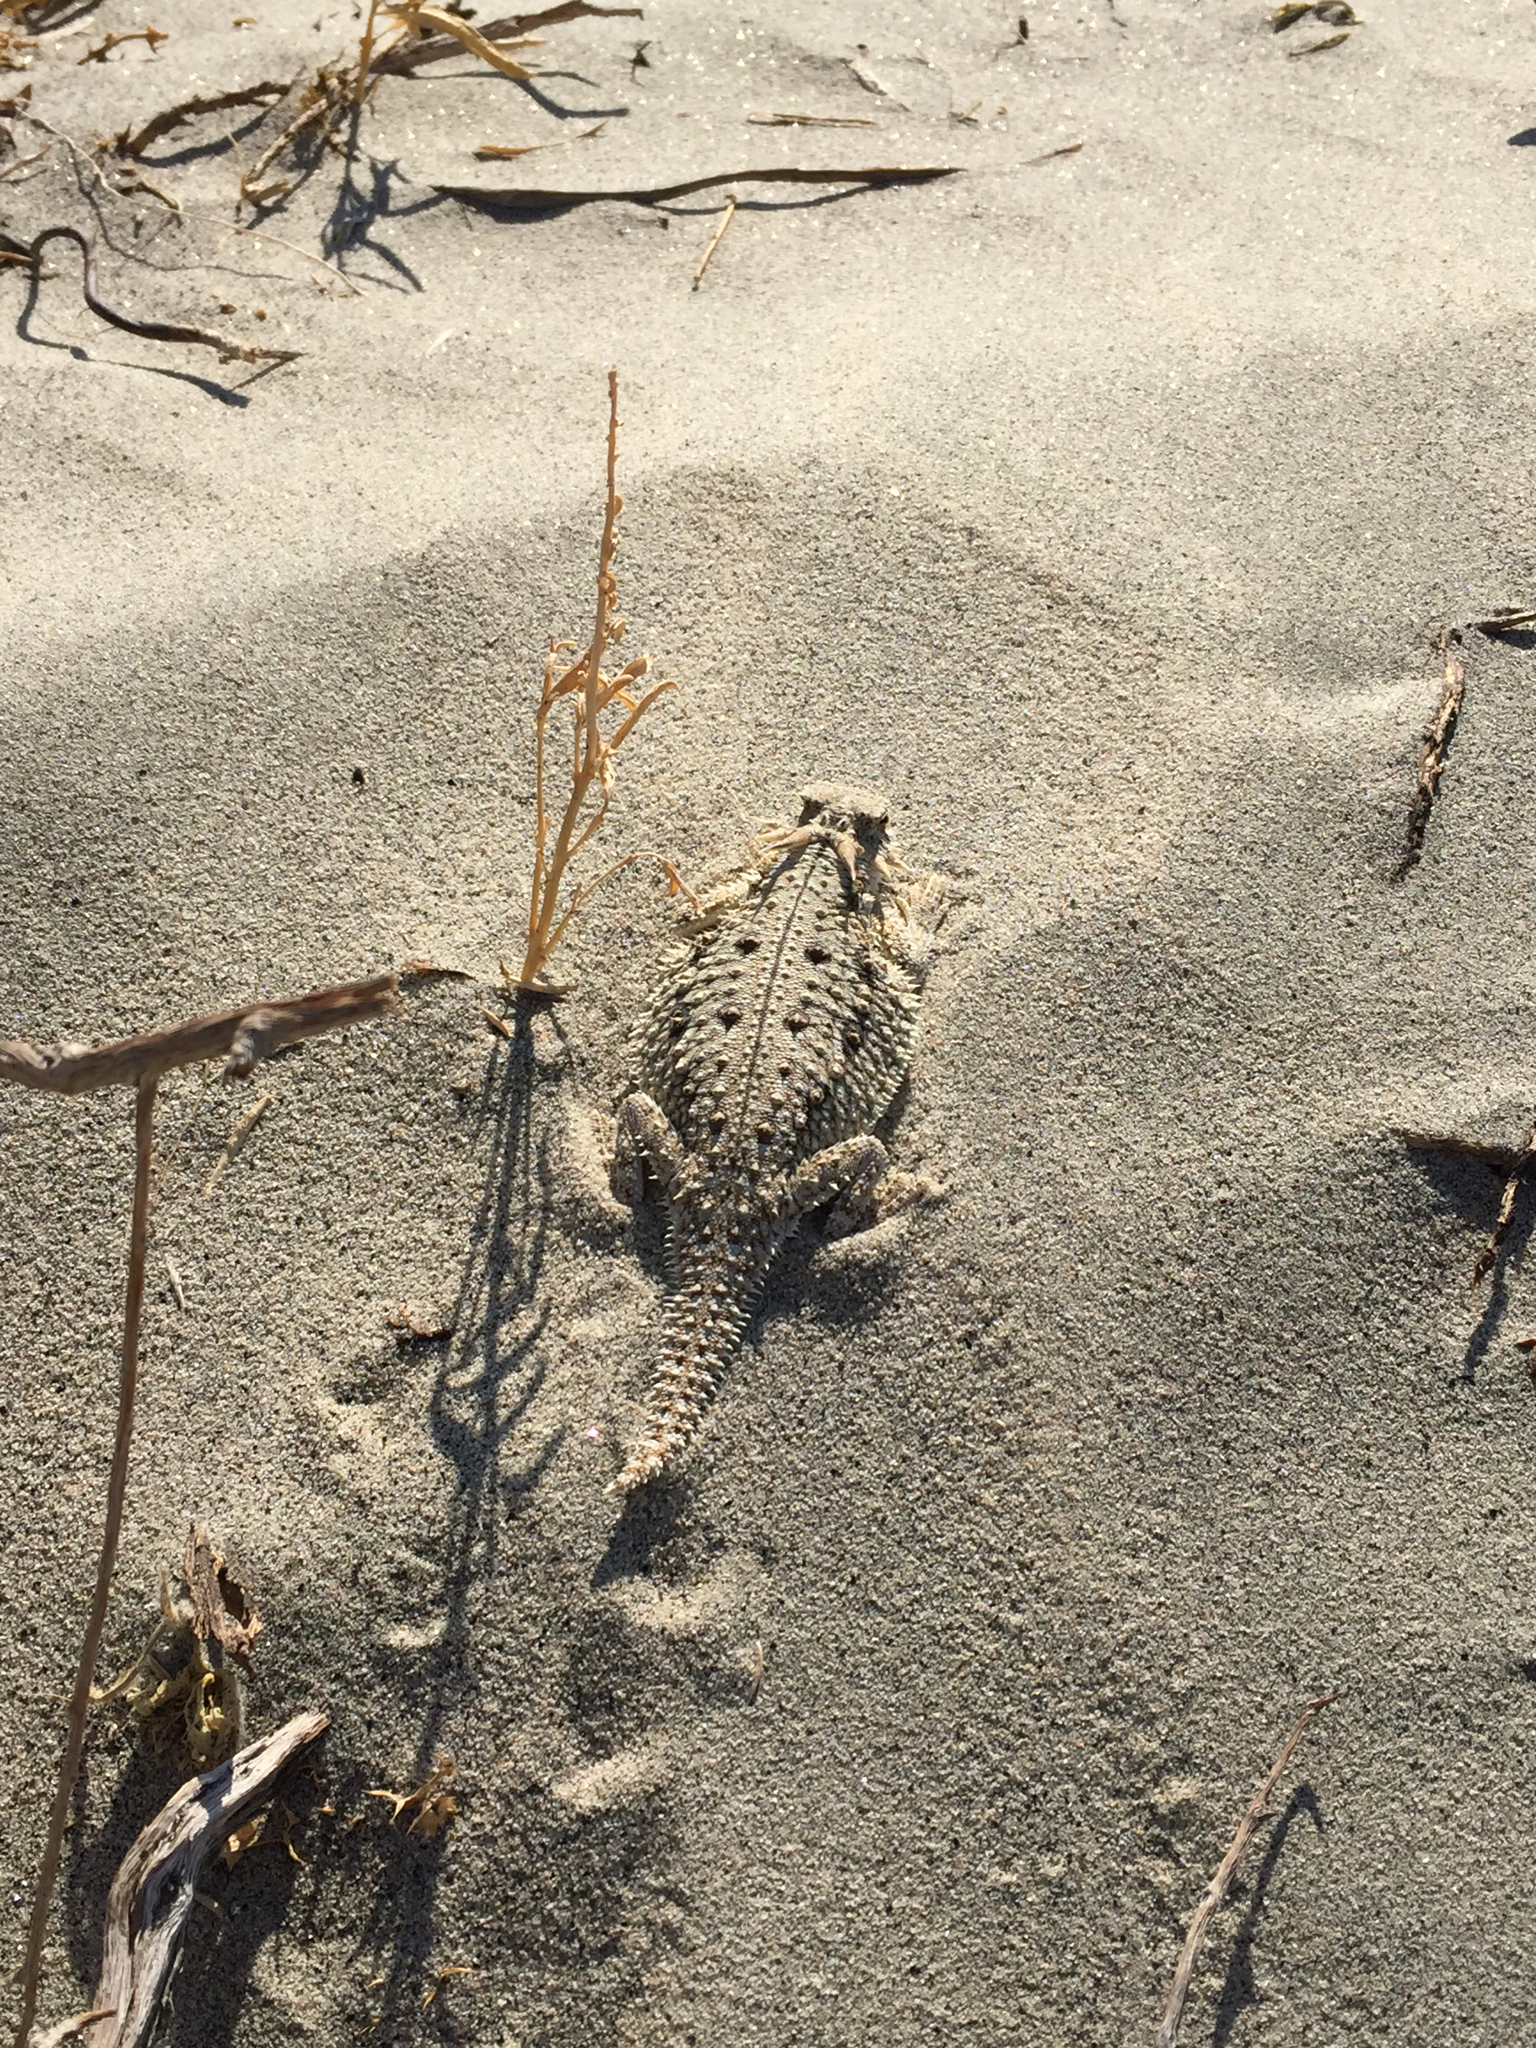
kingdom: Animalia
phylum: Chordata
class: Squamata
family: Phrynosomatidae
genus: Phrynosoma
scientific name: Phrynosoma mcallii
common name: Flat-tailed horned lizard
